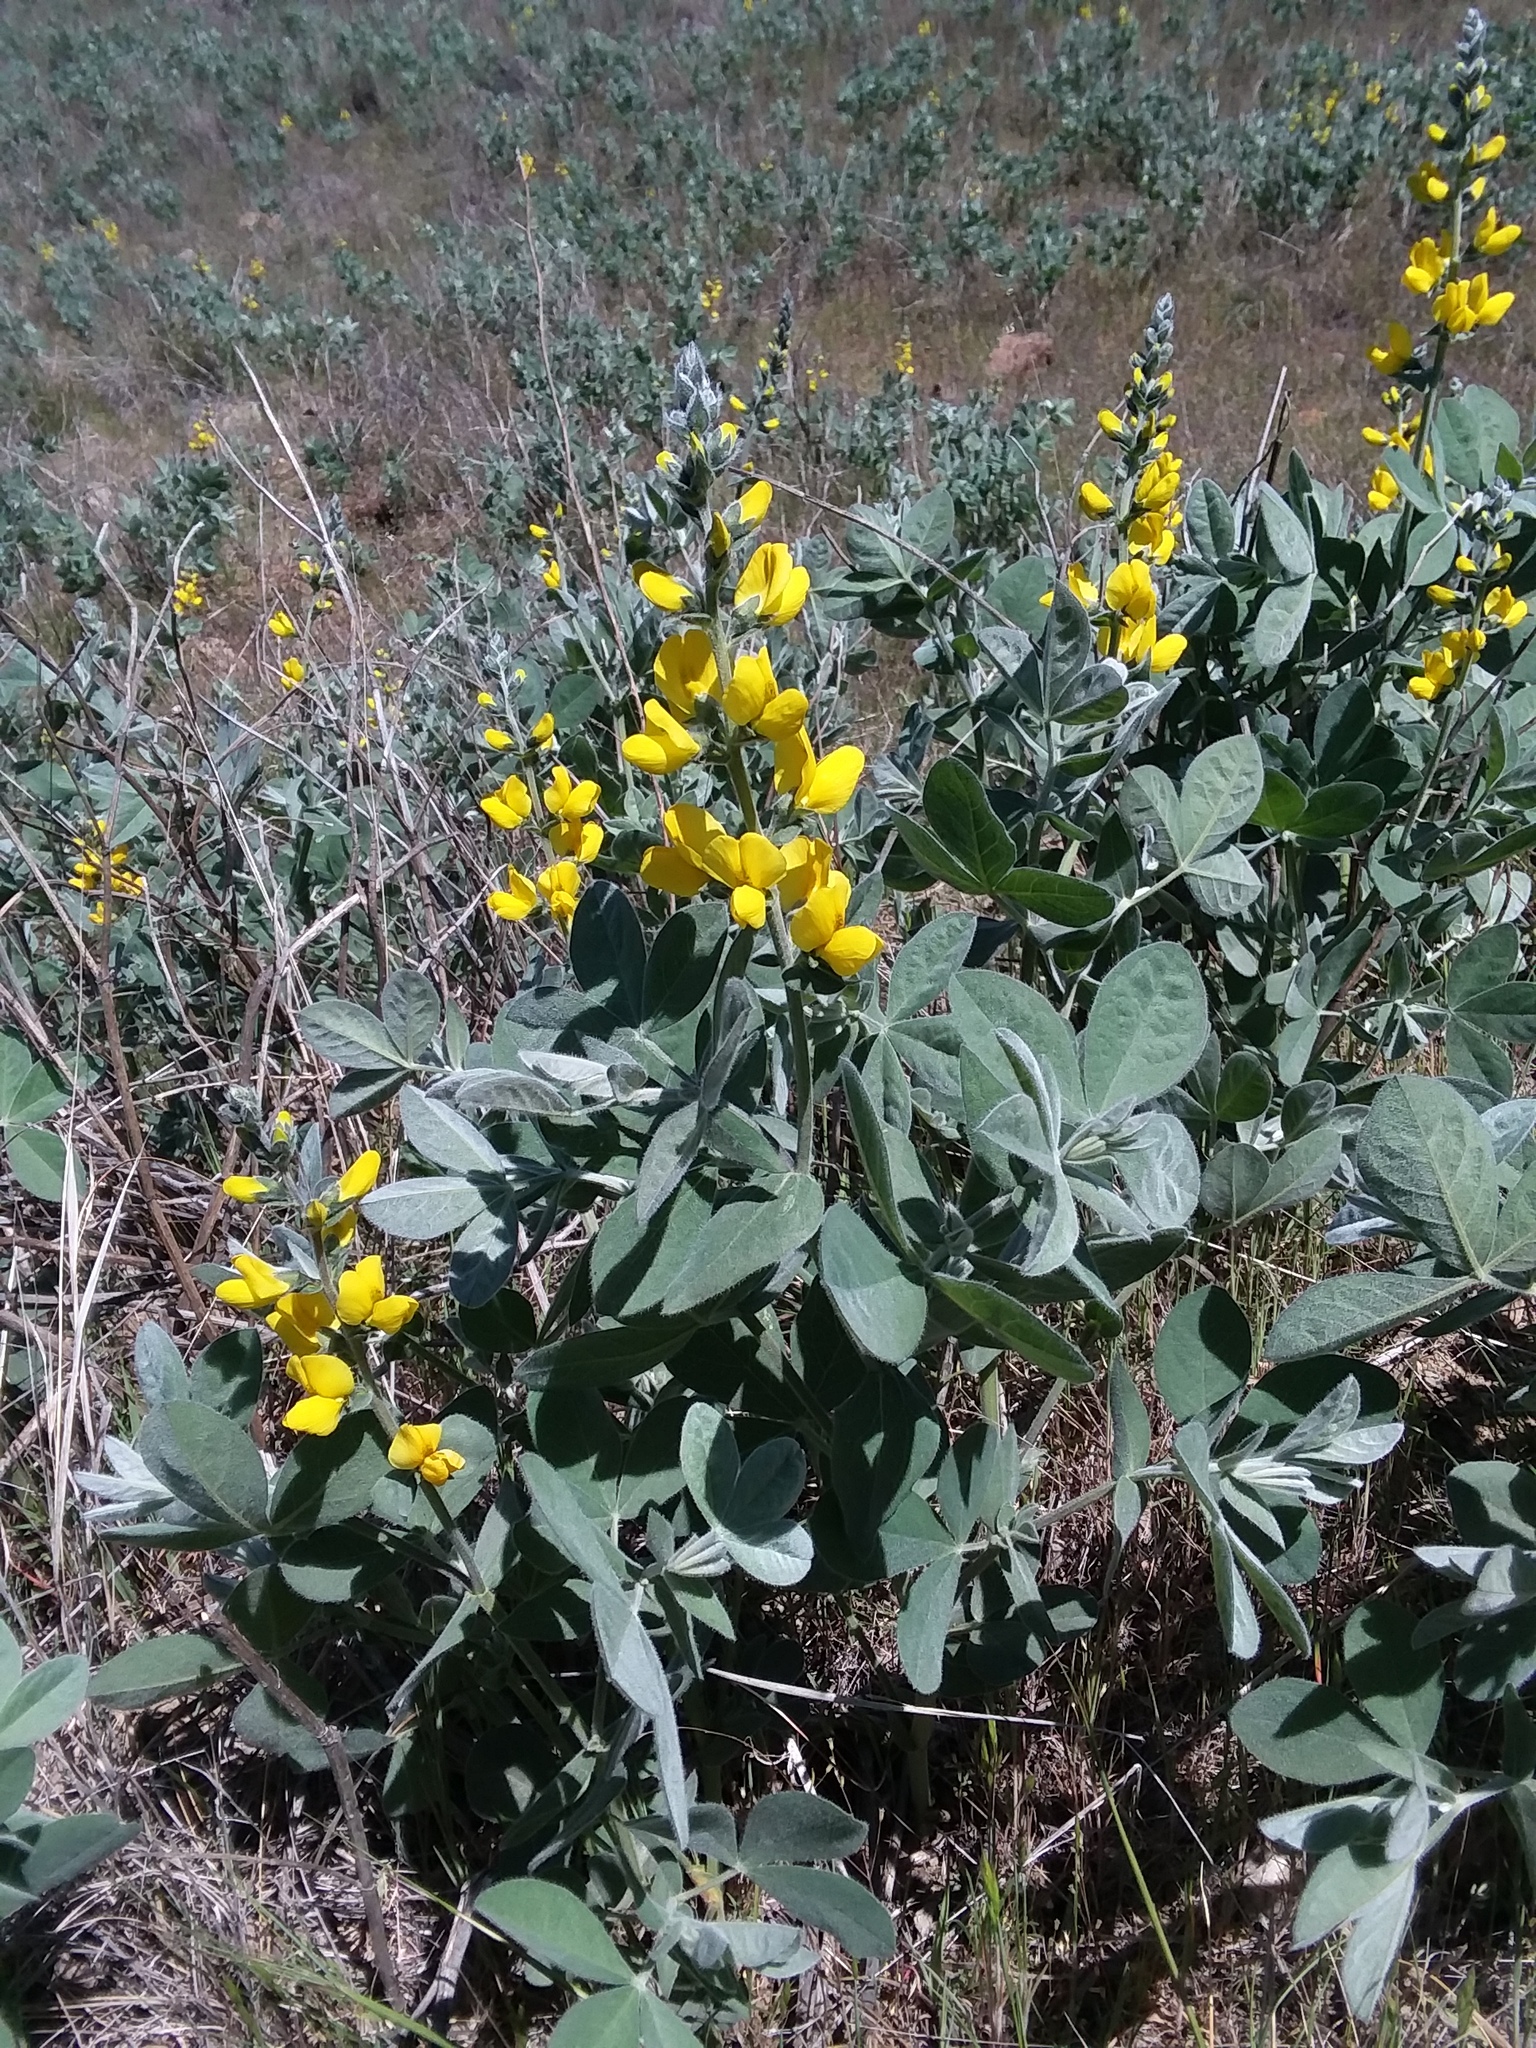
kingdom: Plantae
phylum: Tracheophyta
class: Magnoliopsida
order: Fabales
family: Fabaceae
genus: Thermopsis
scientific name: Thermopsis californica
